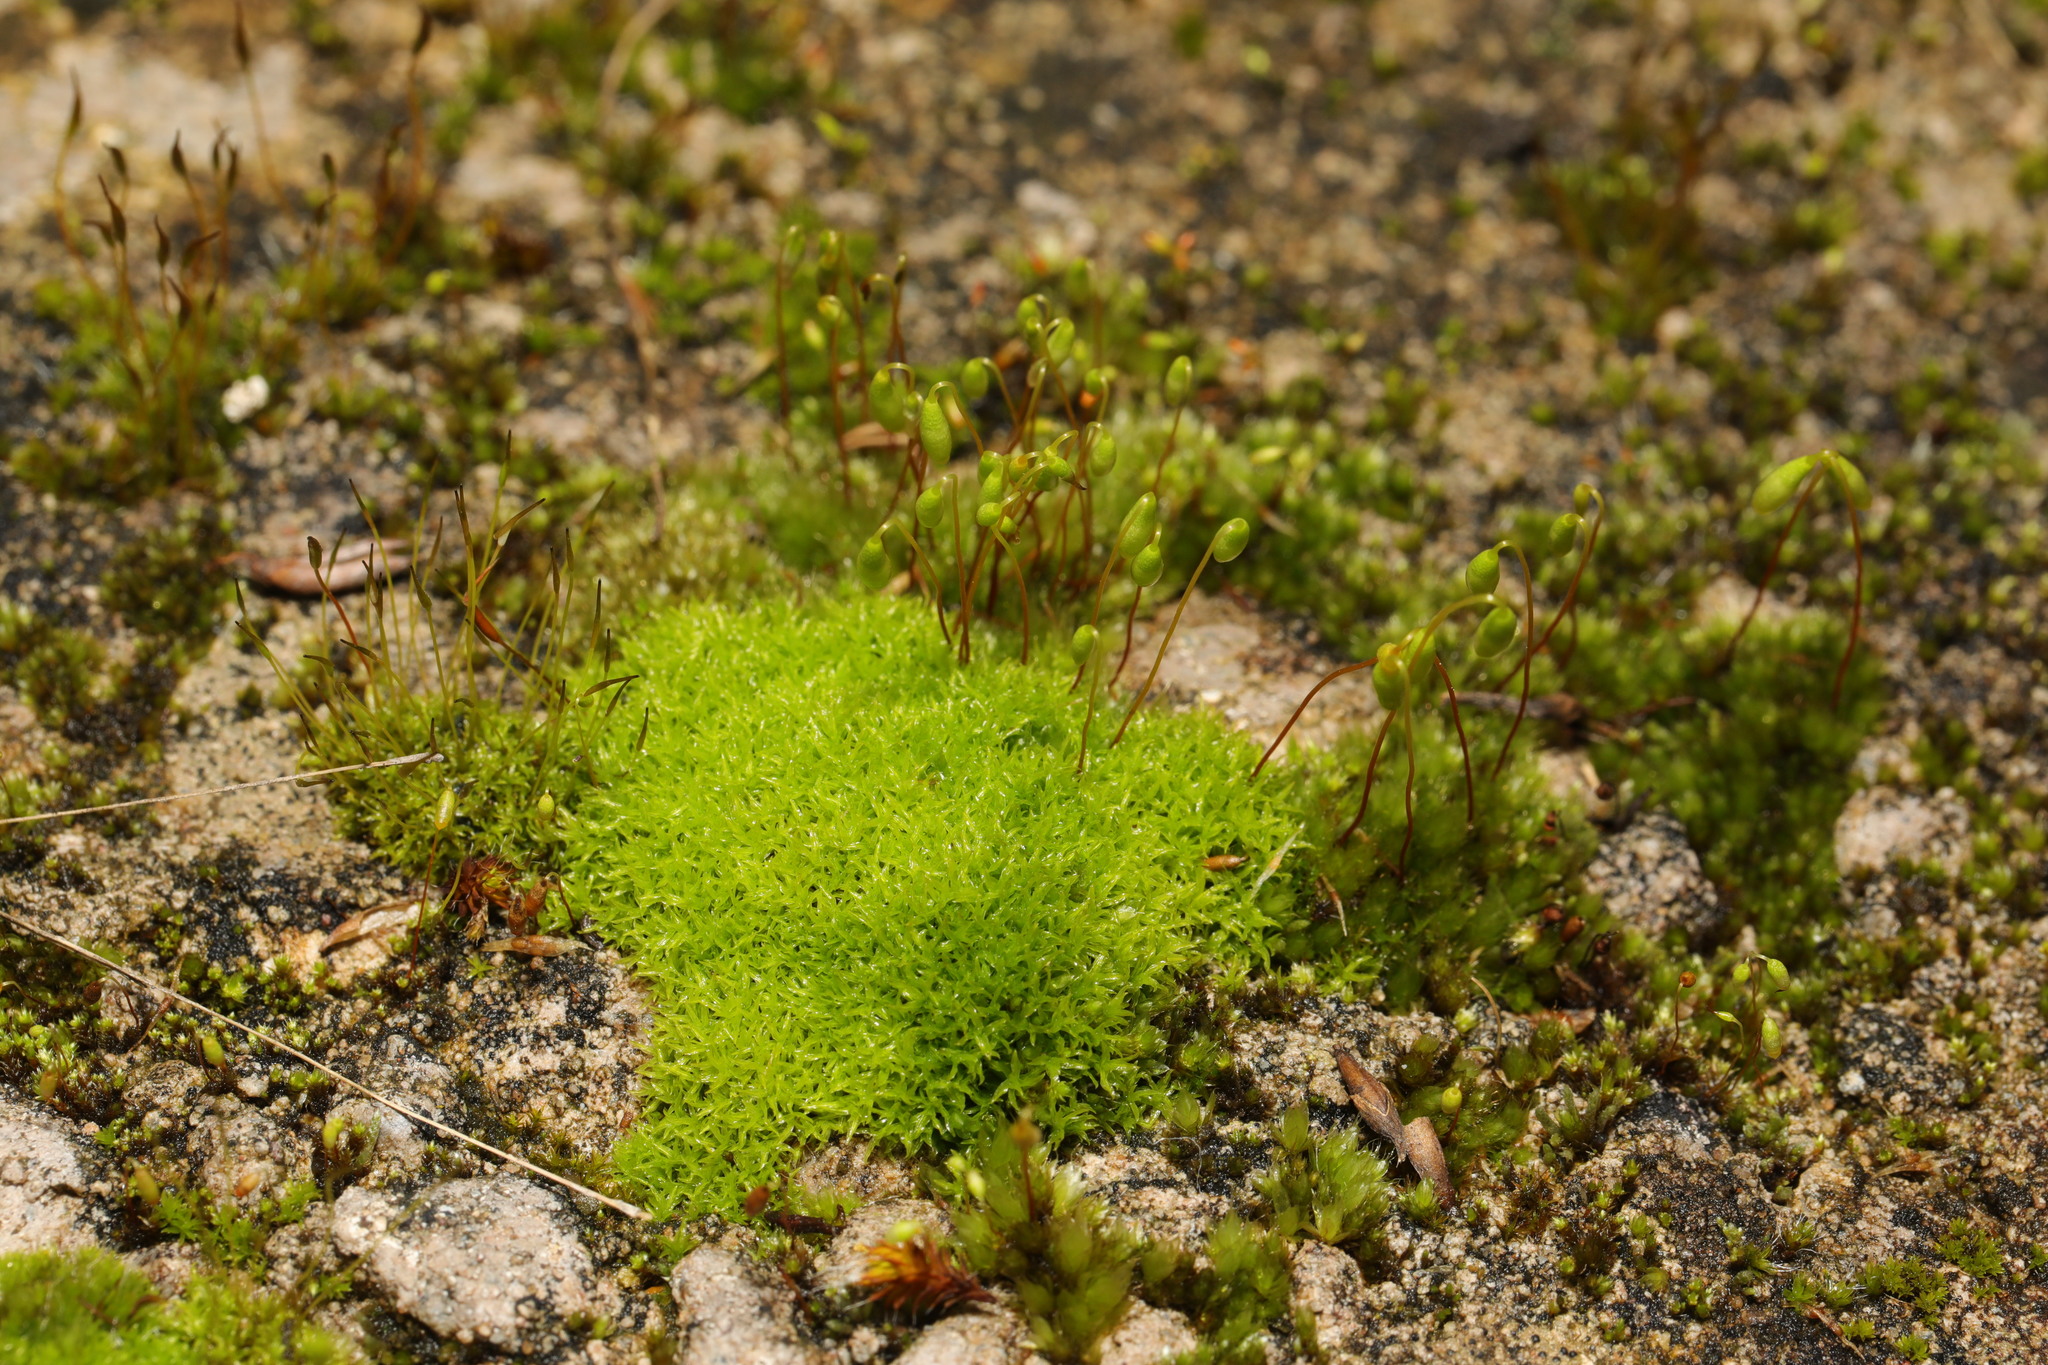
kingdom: Plantae
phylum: Bryophyta
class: Bryopsida
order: Bryales
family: Bryaceae
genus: Rosulabryum
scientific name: Rosulabryum capillare
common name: Capillary thread-moss
